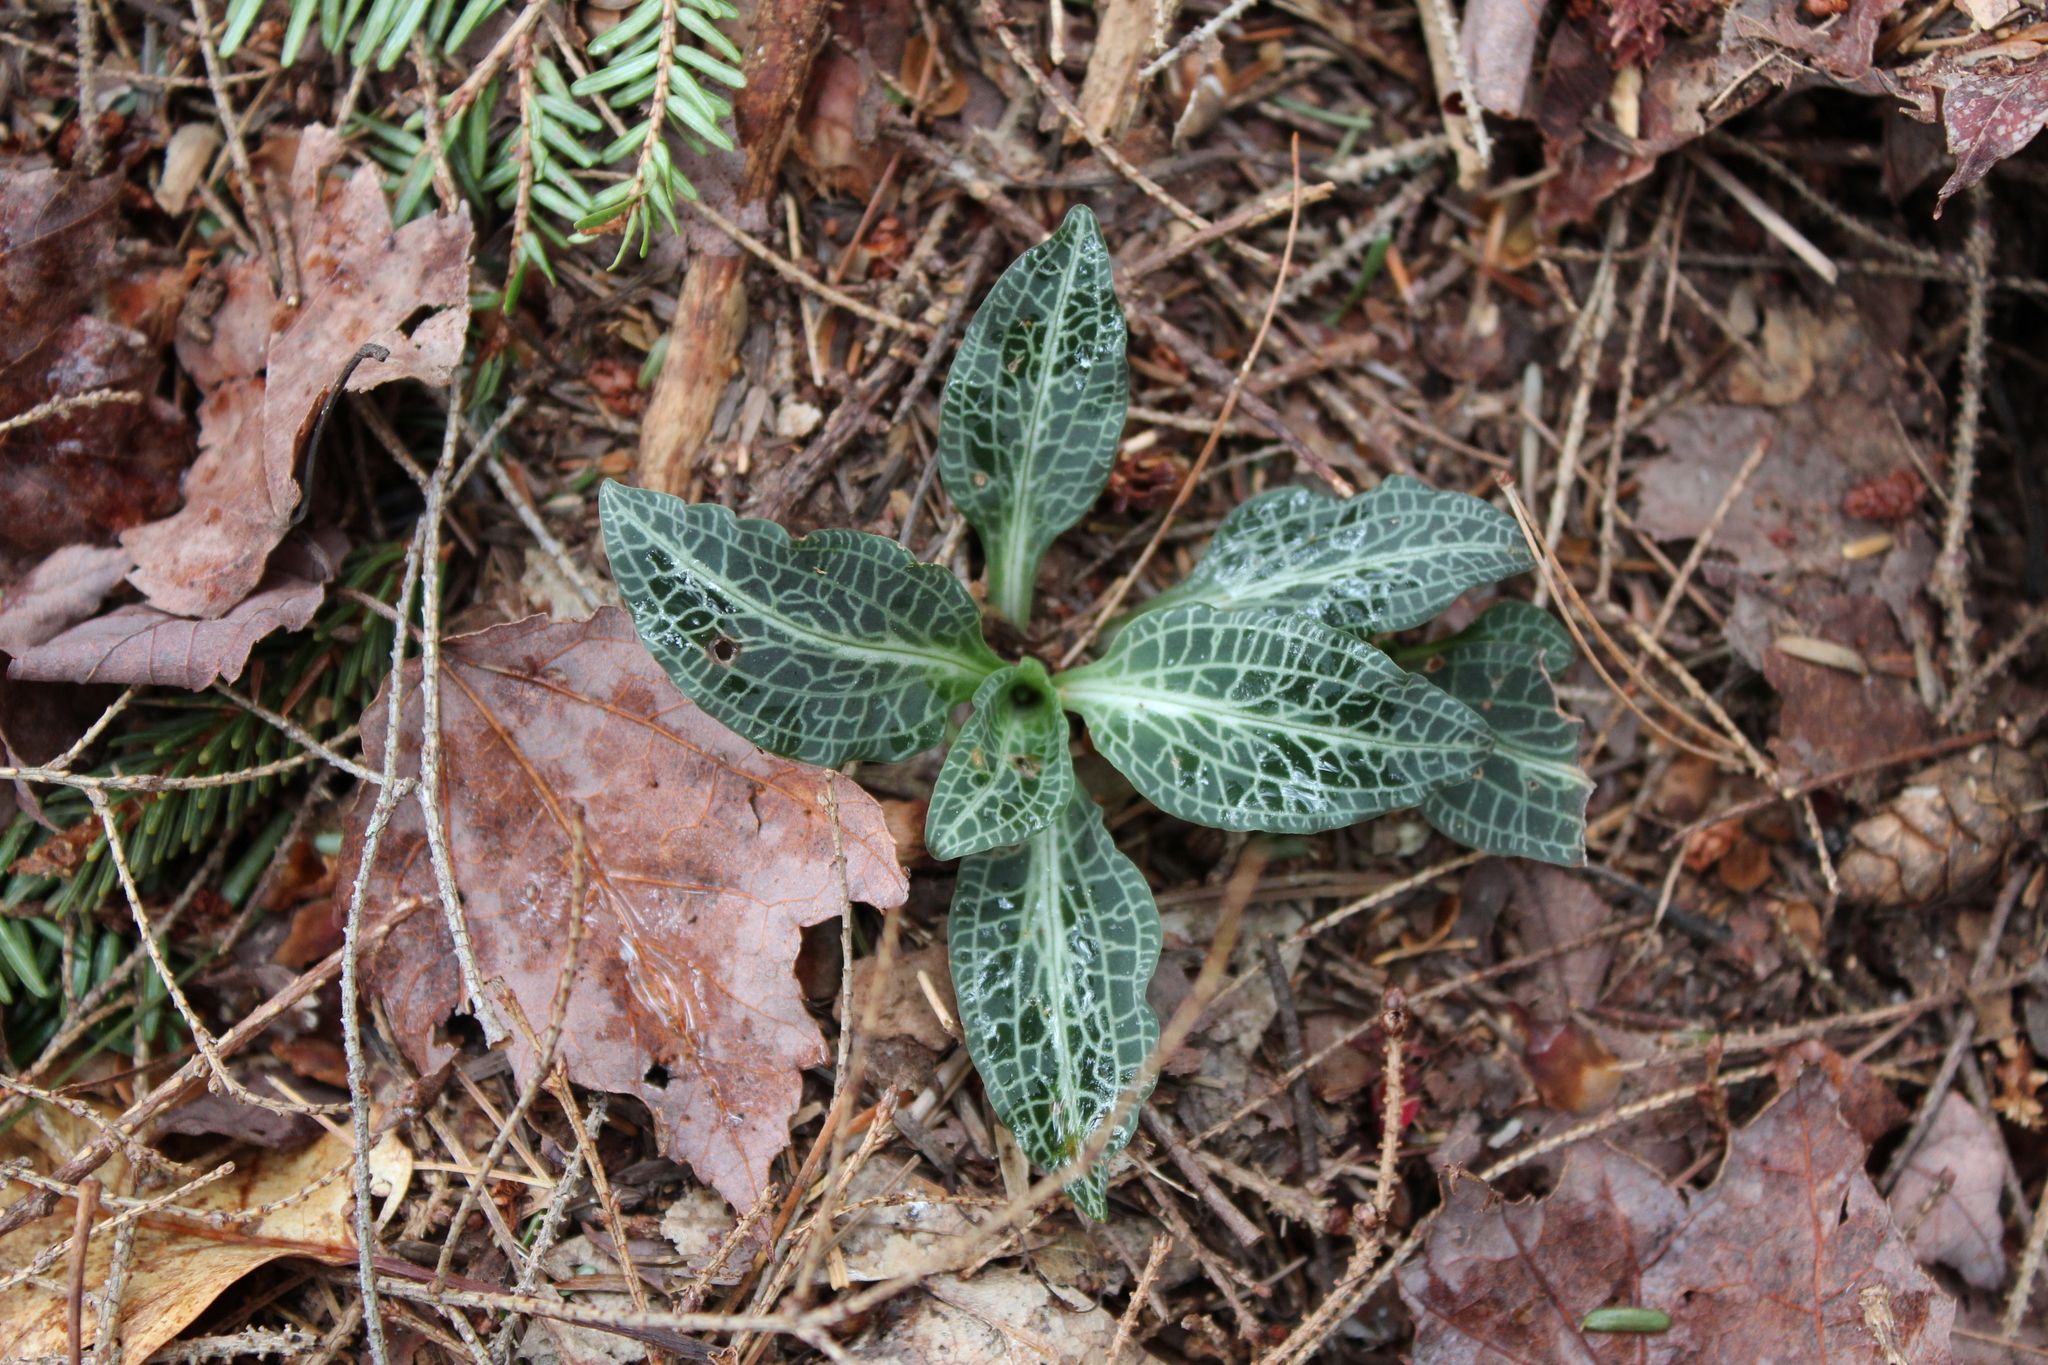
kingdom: Plantae
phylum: Tracheophyta
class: Liliopsida
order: Asparagales
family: Orchidaceae
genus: Goodyera
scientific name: Goodyera pubescens
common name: Downy rattlesnake-plantain
